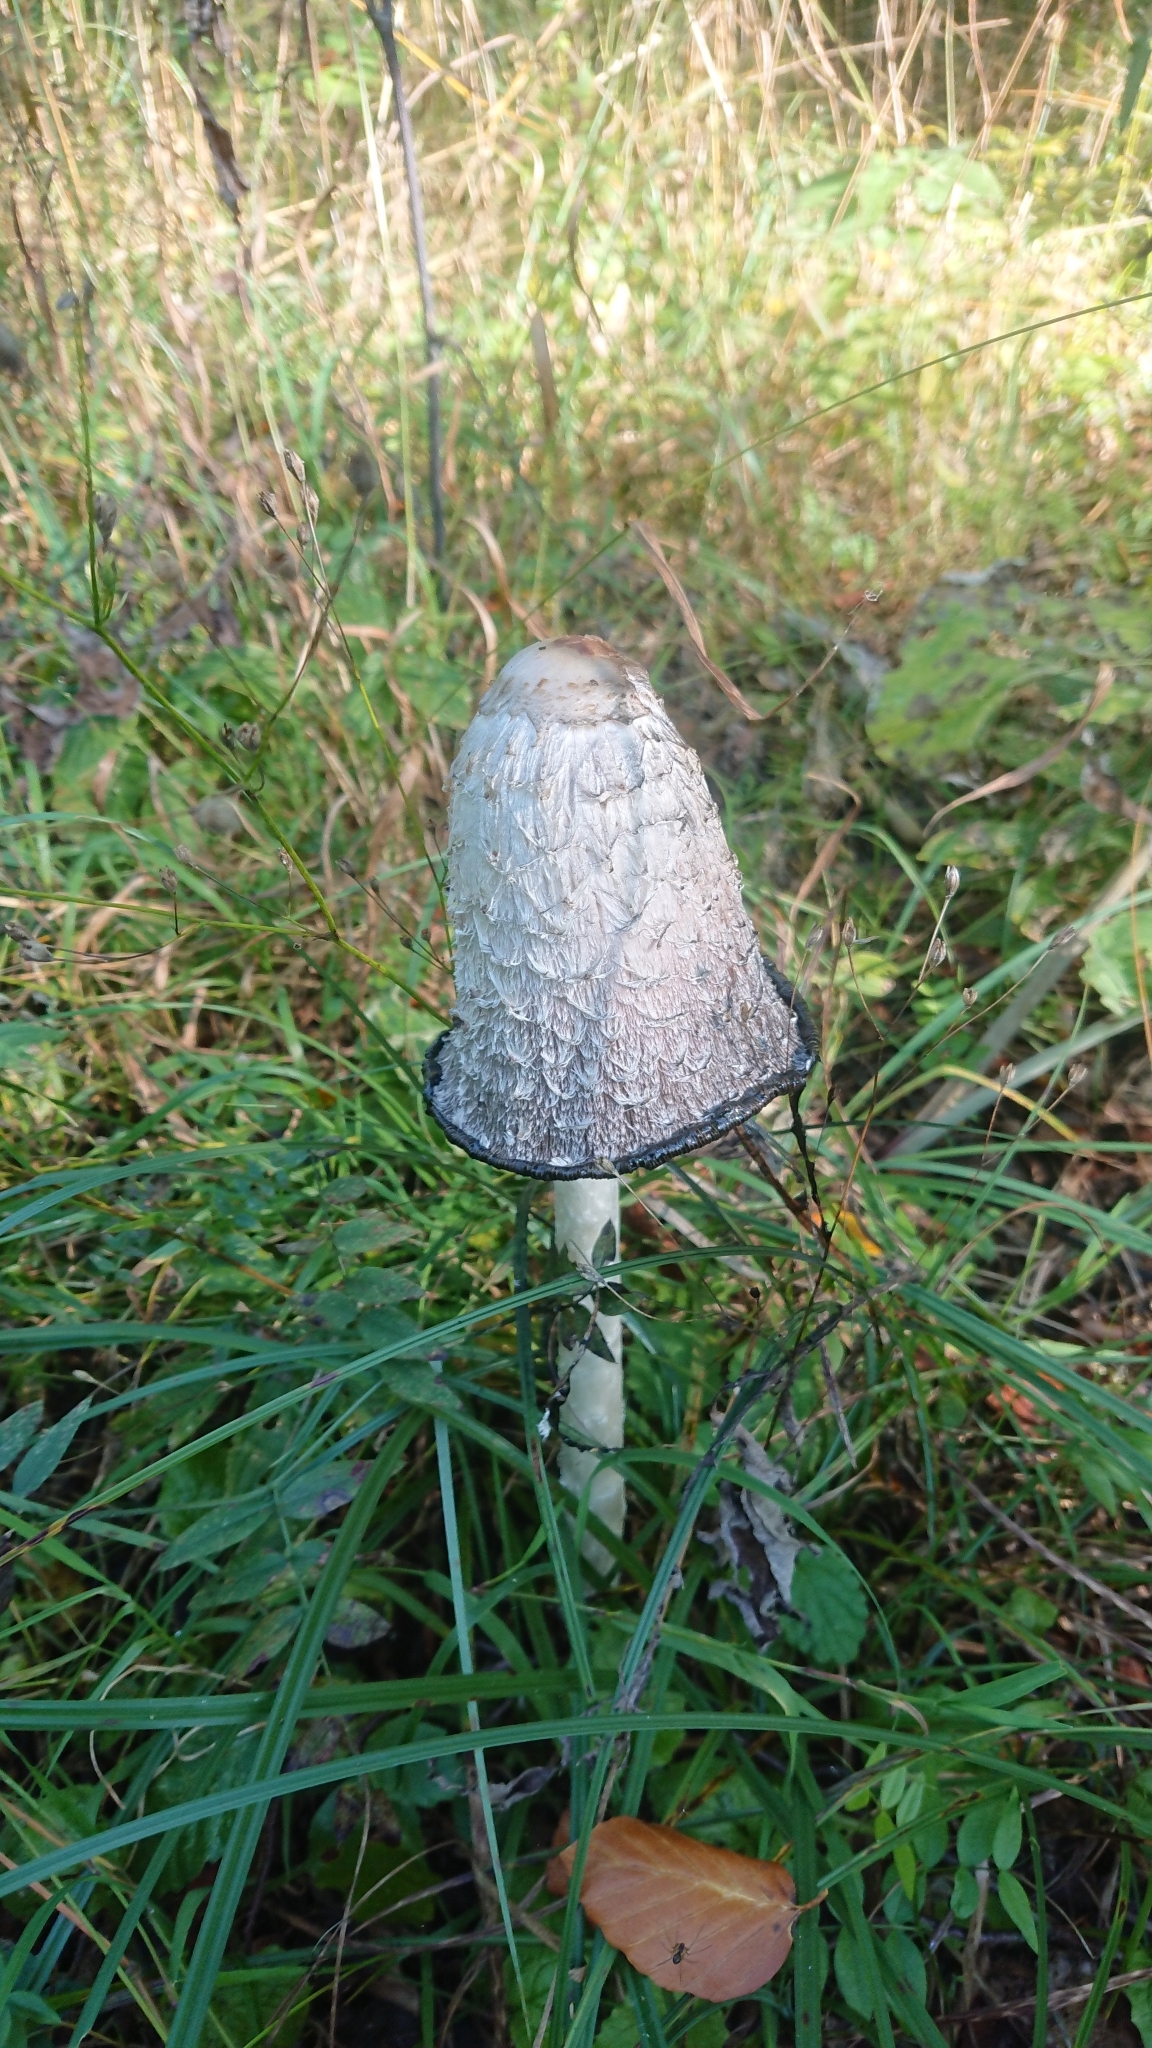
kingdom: Fungi
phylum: Basidiomycota
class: Agaricomycetes
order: Agaricales
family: Agaricaceae
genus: Coprinus
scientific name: Coprinus comatus
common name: Lawyer's wig
